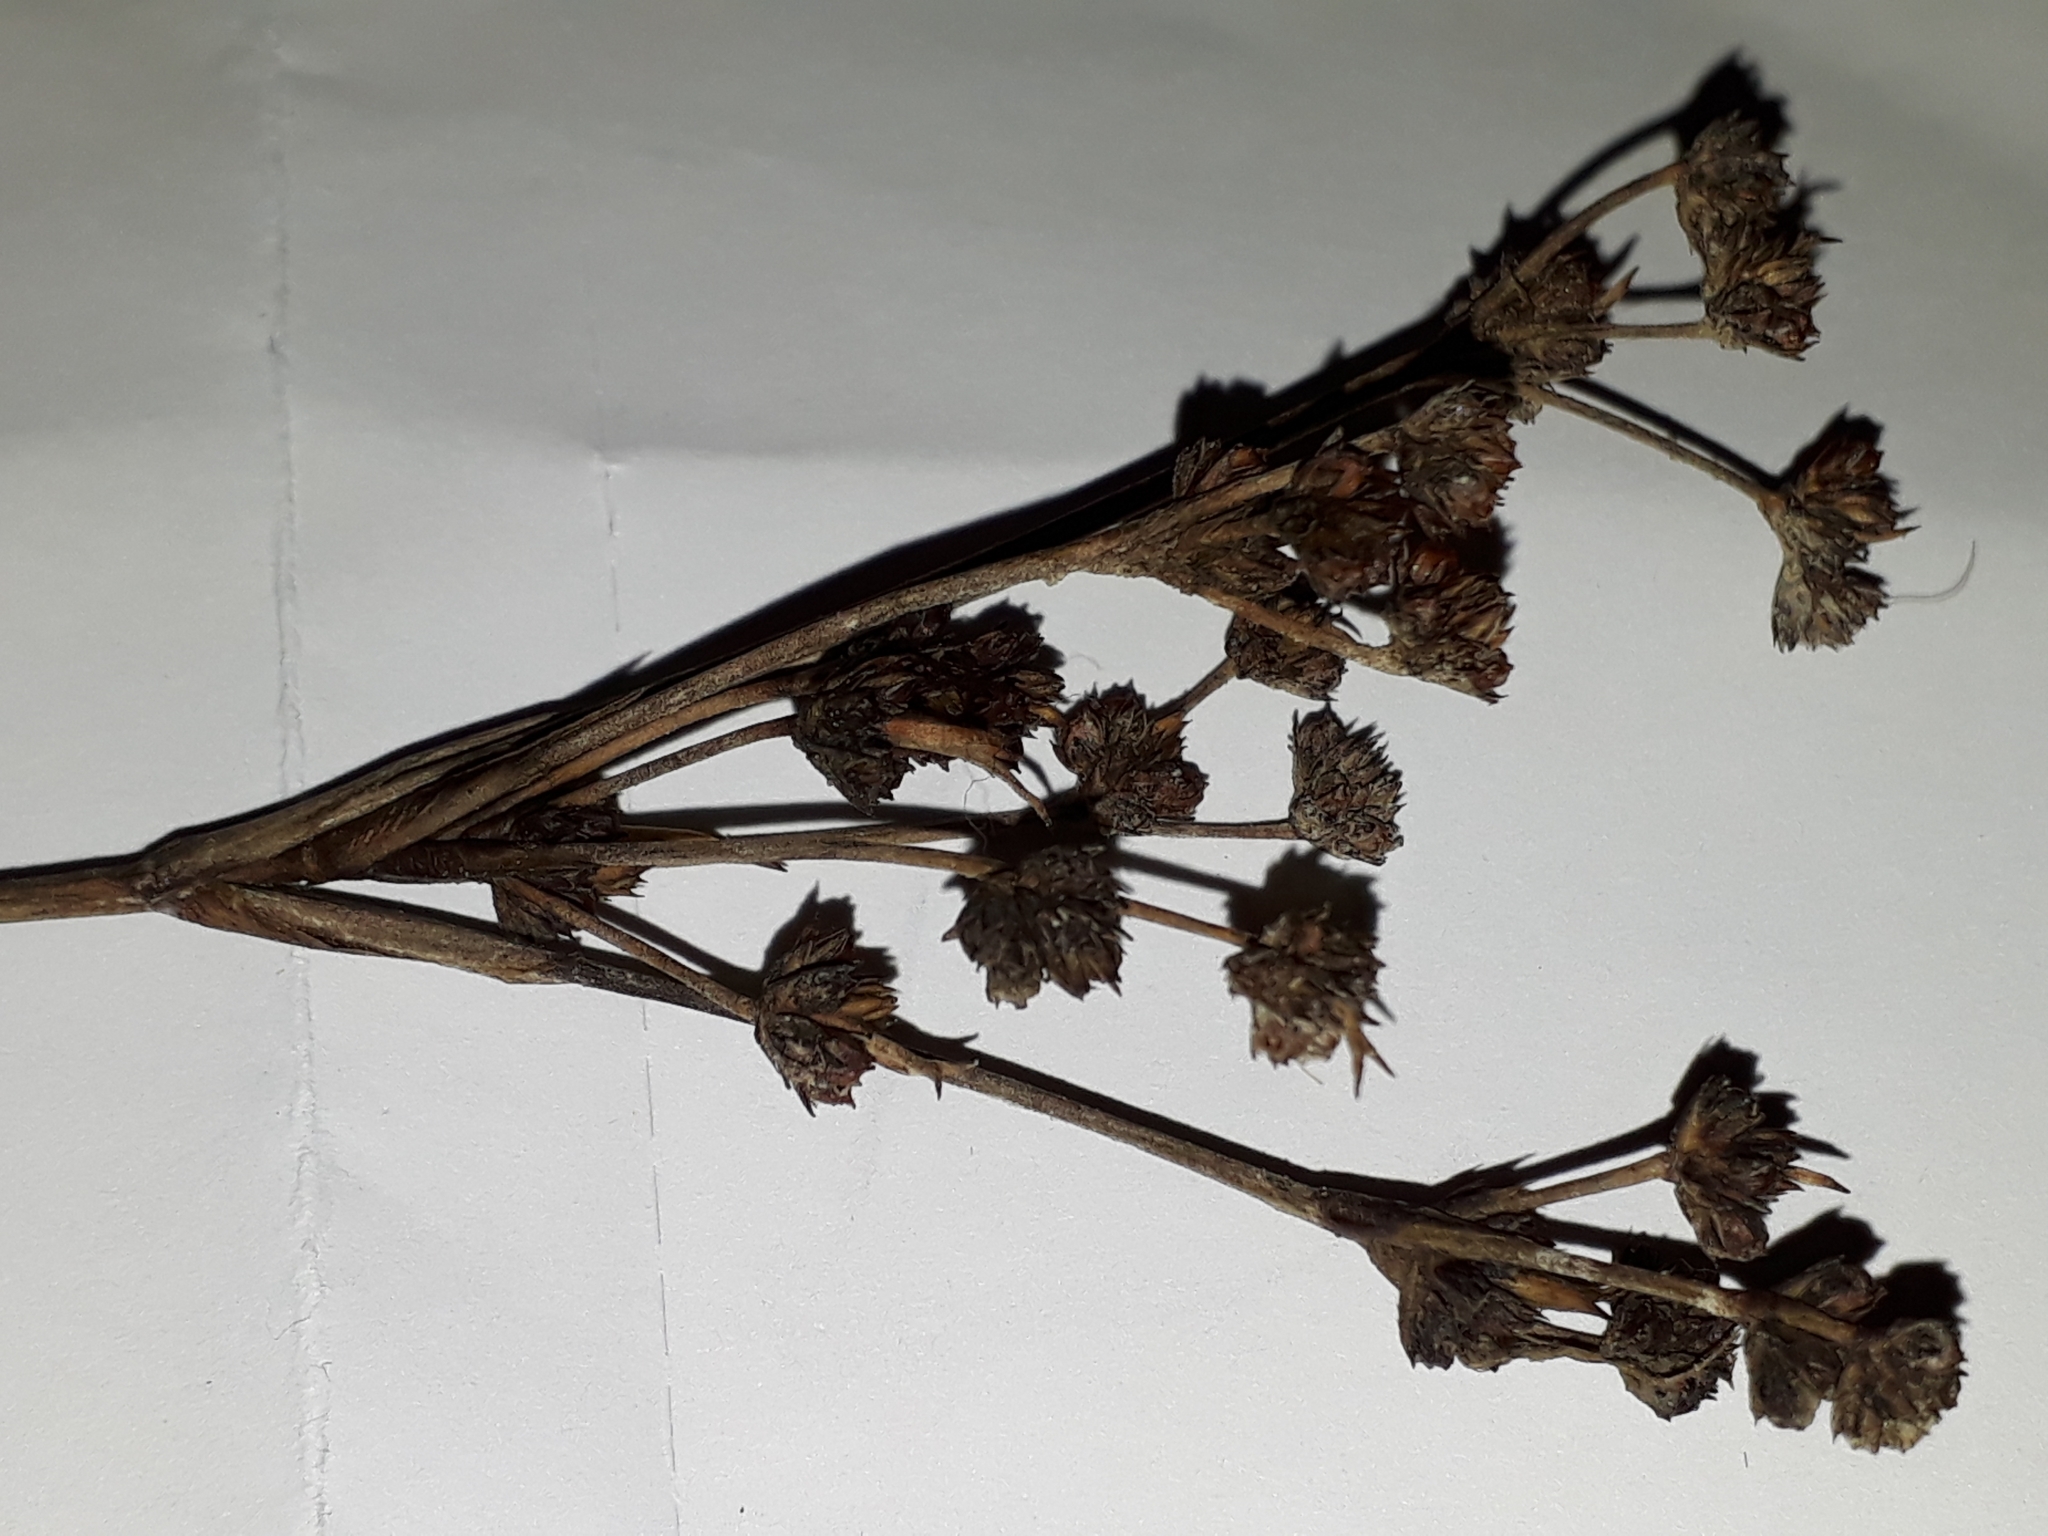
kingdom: Plantae
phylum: Tracheophyta
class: Liliopsida
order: Poales
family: Juncaceae
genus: Juncus
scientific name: Juncus planifolius
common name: Broadleaf rush
